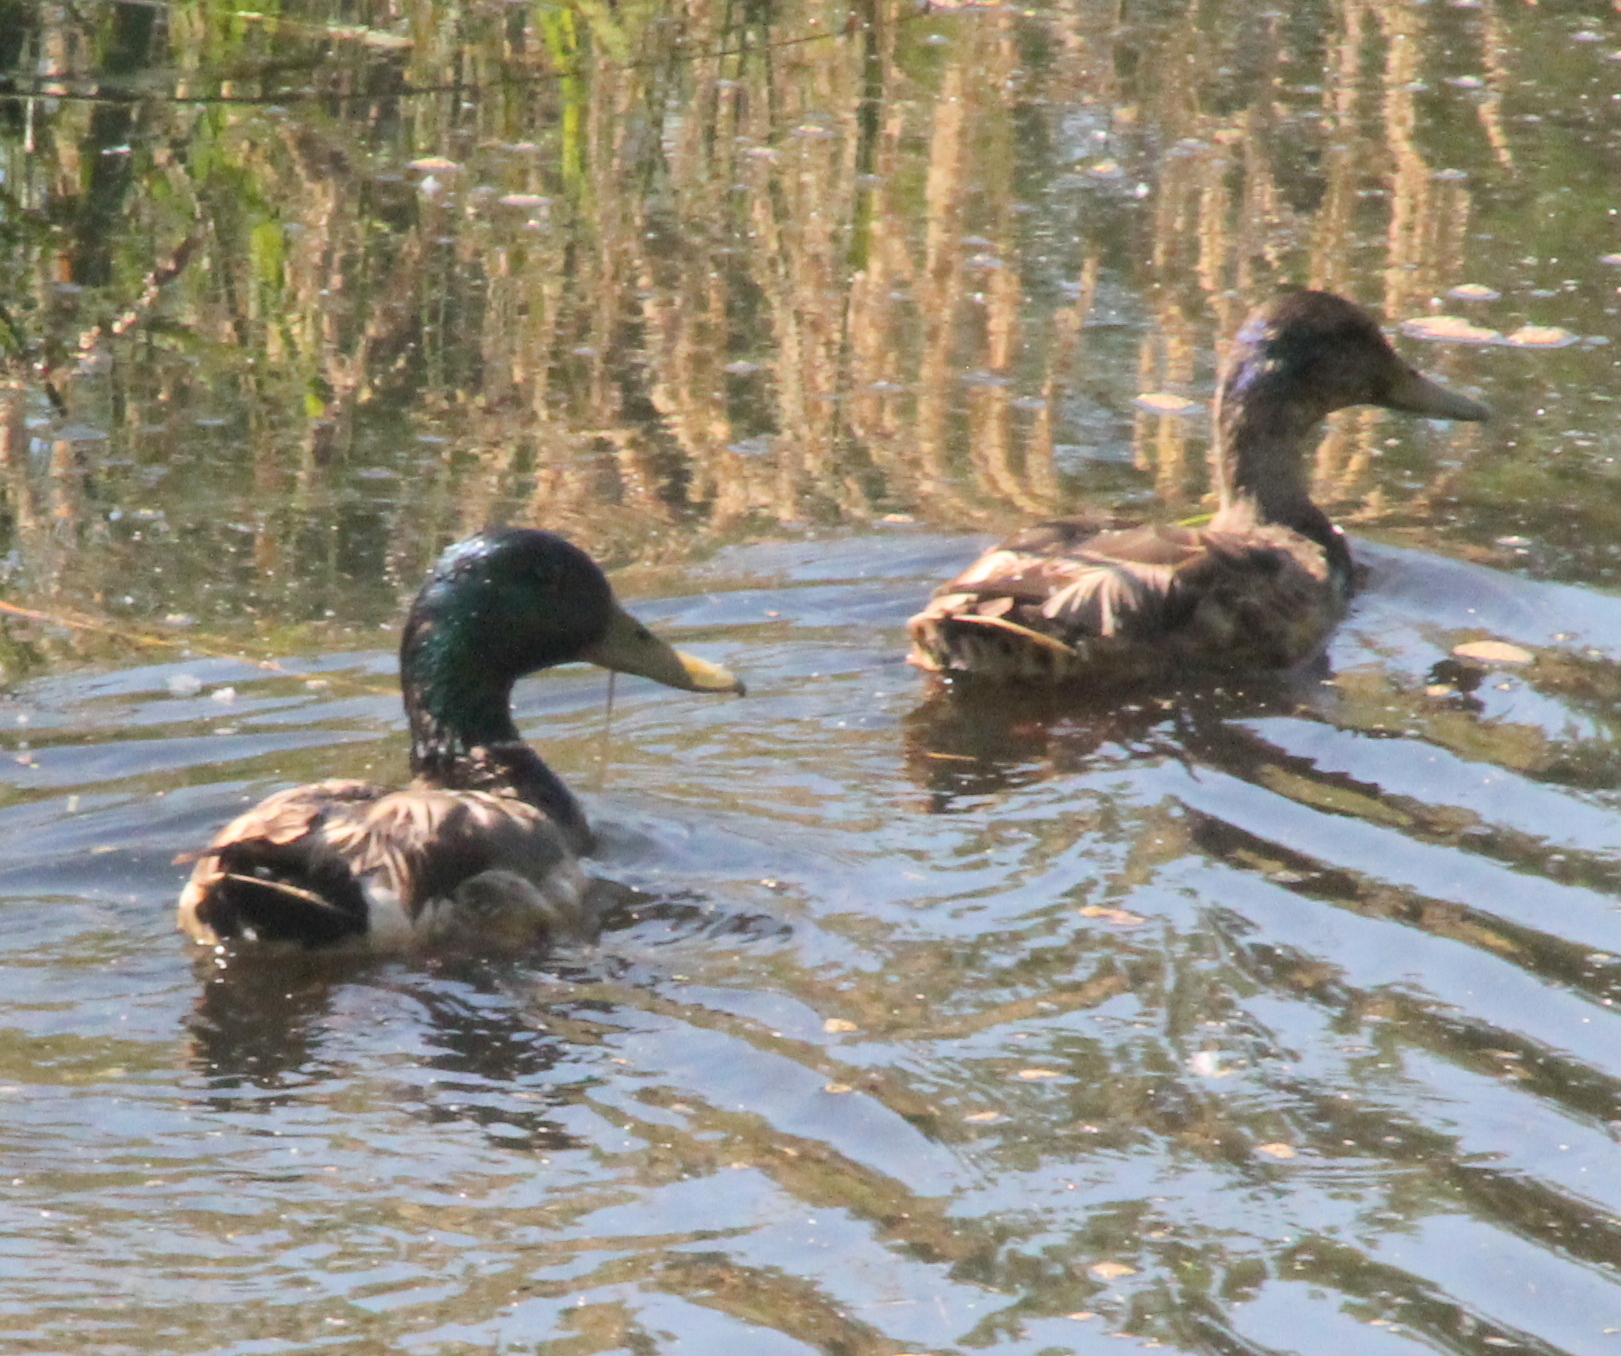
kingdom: Animalia
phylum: Chordata
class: Aves
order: Anseriformes
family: Anatidae
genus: Anas
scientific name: Anas platyrhynchos
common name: Mallard
